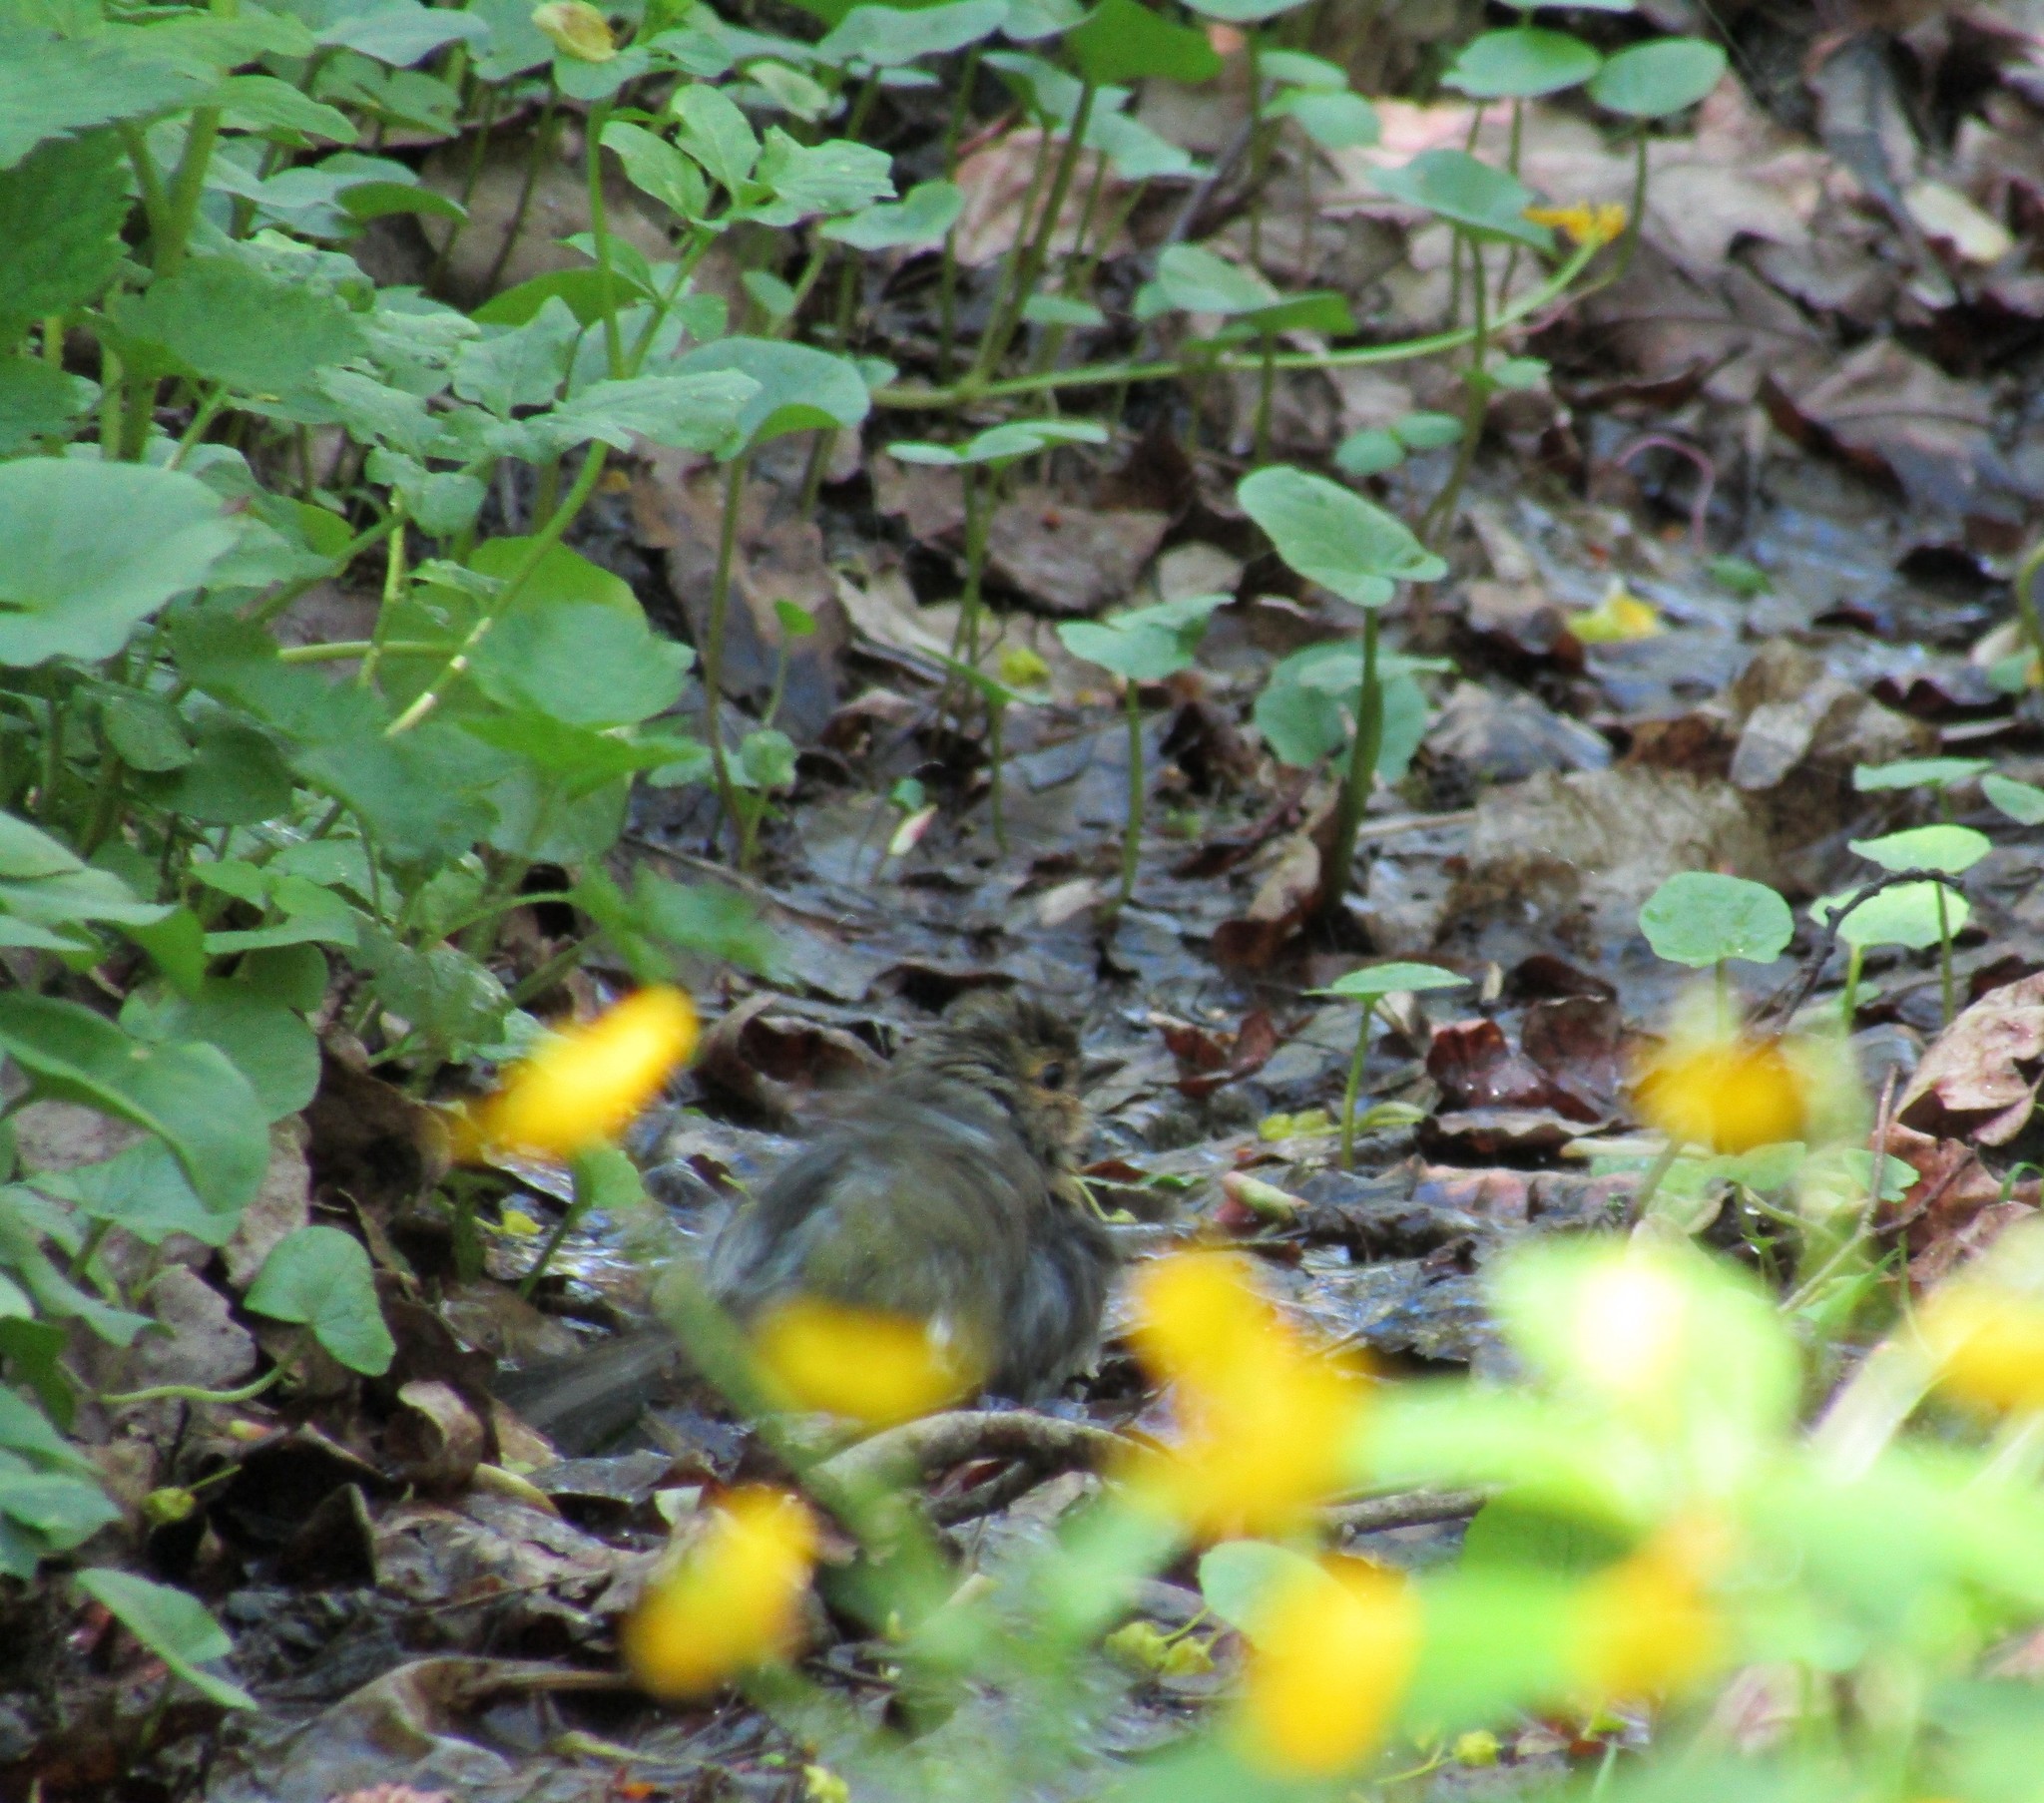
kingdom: Animalia
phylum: Chordata
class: Aves
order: Passeriformes
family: Fringillidae
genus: Fringilla
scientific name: Fringilla coelebs
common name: Common chaffinch
